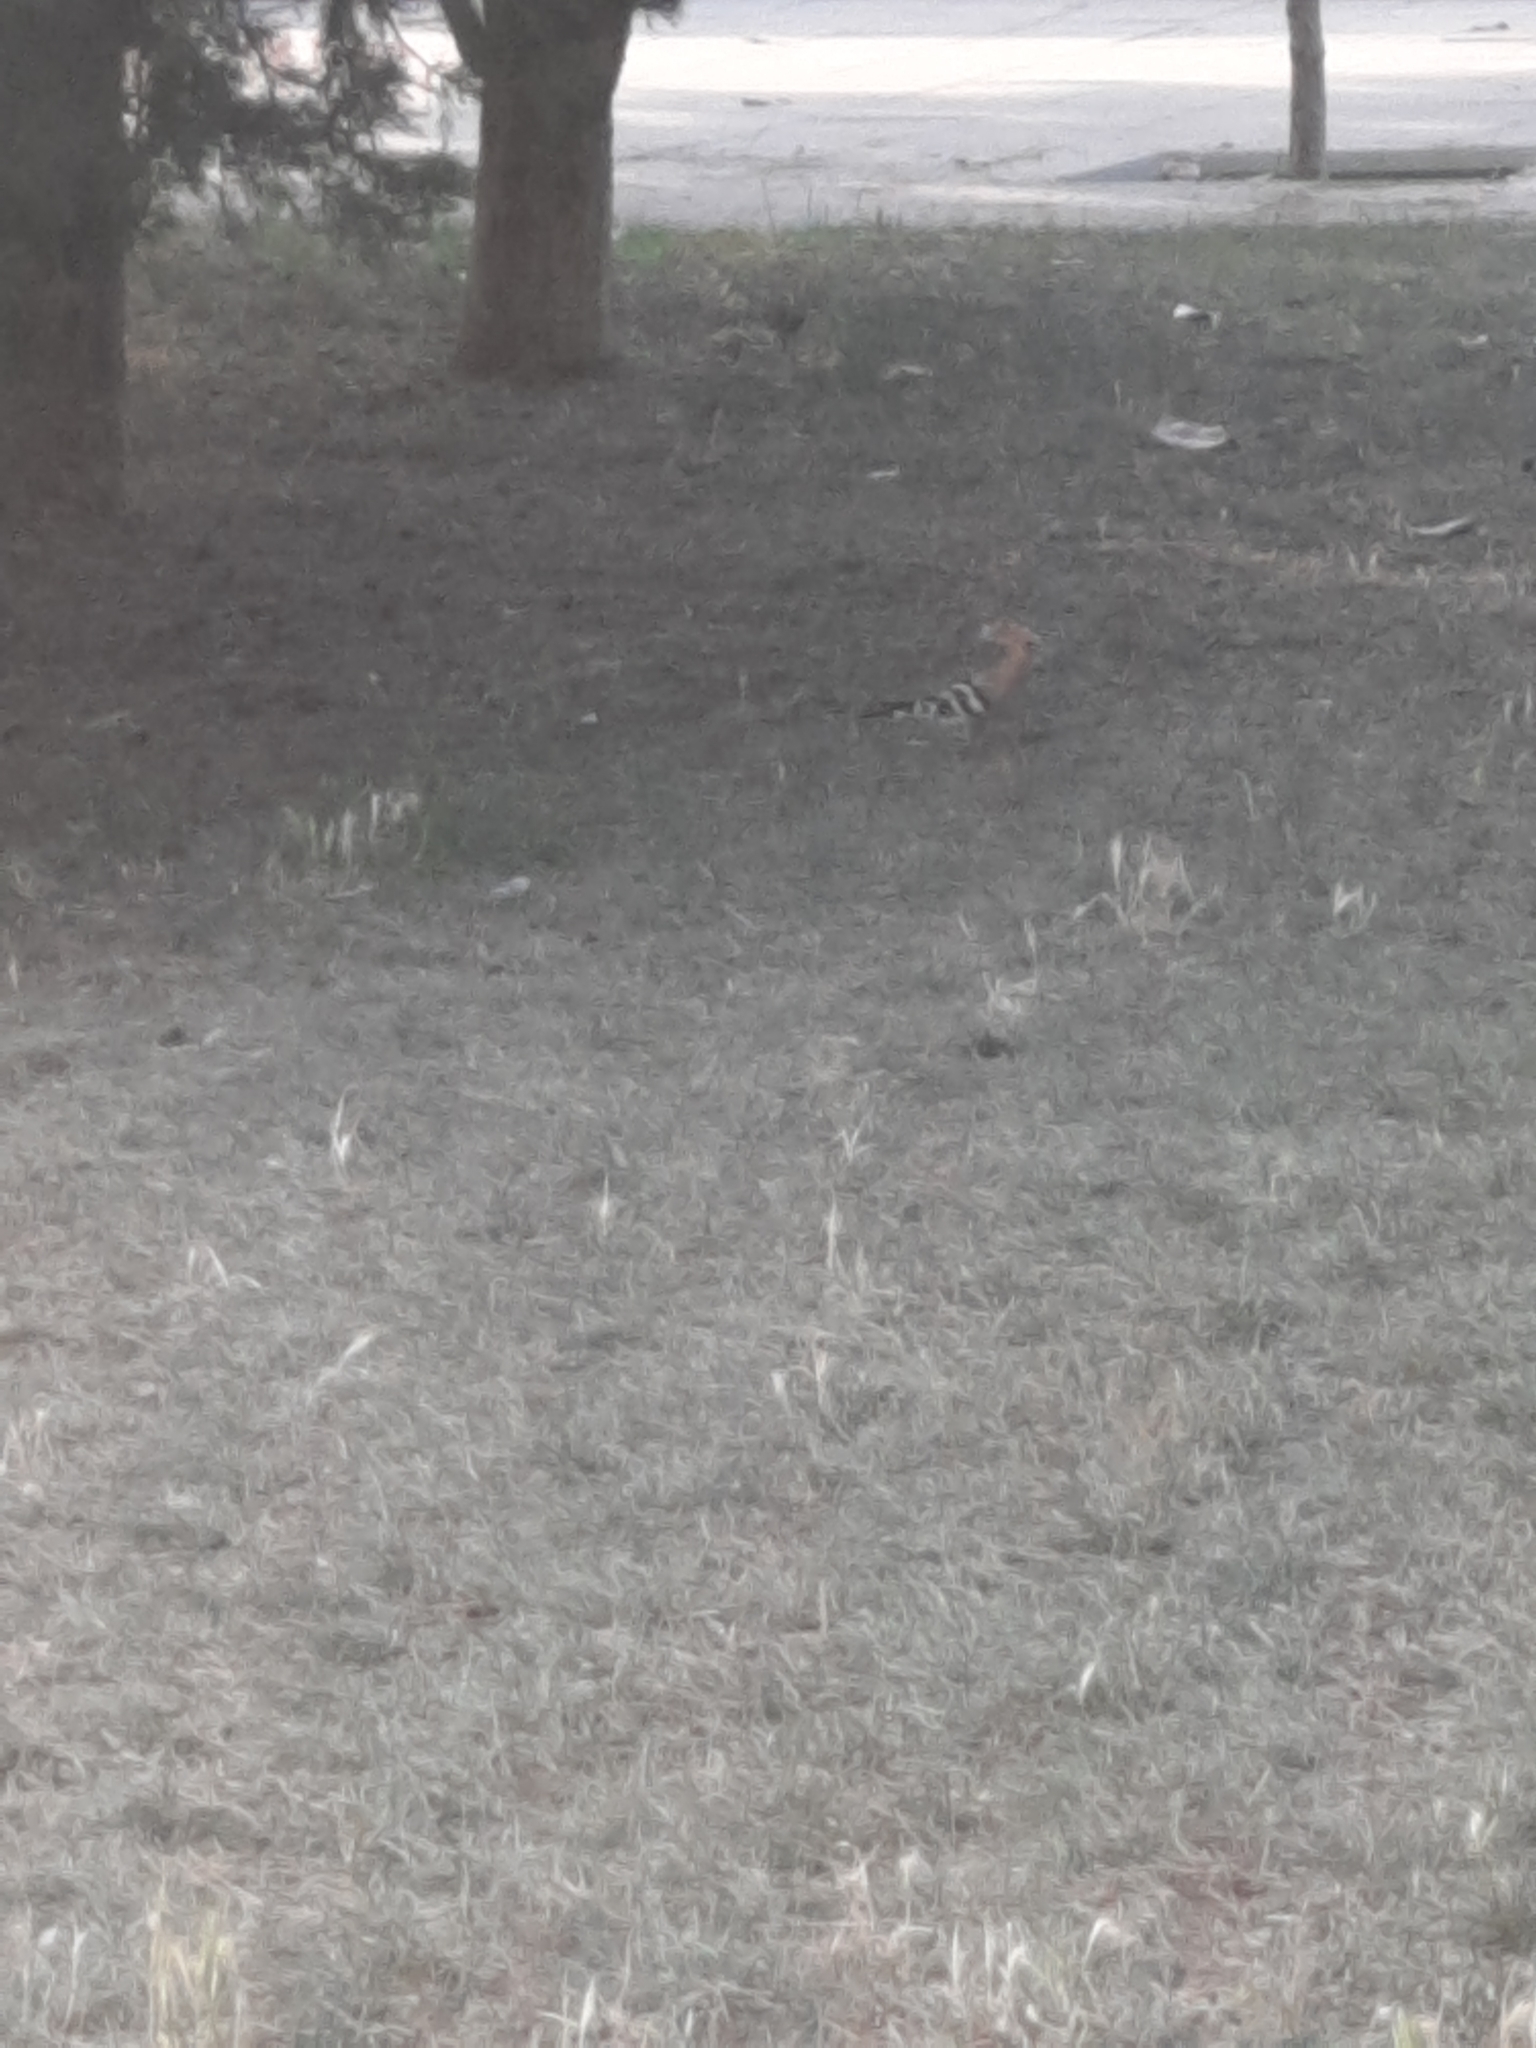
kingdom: Animalia
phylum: Chordata
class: Aves
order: Bucerotiformes
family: Upupidae
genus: Upupa
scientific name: Upupa epops
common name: Eurasian hoopoe
